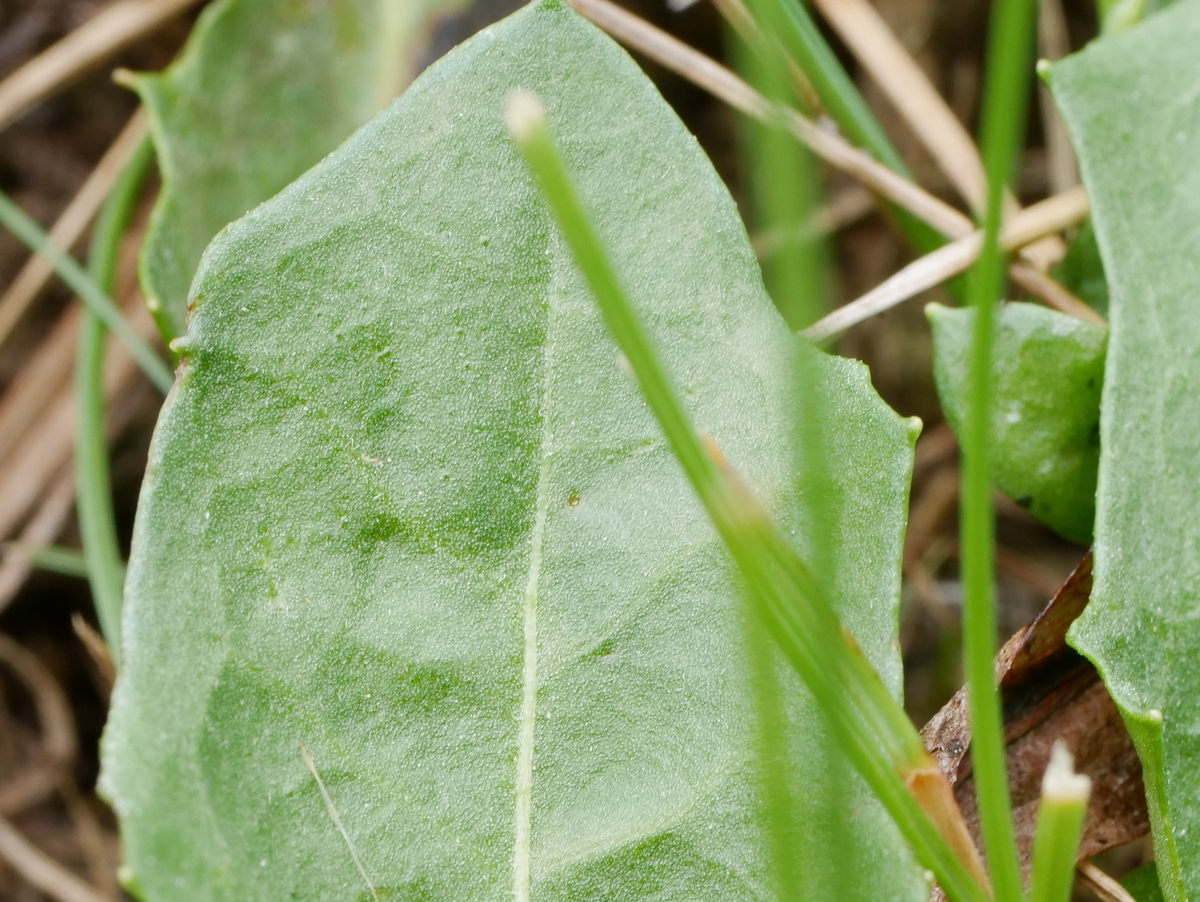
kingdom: Plantae
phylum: Tracheophyta
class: Magnoliopsida
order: Asterales
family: Asteraceae
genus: Leontodon
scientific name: Leontodon hispidus
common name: Rough hawkbit
